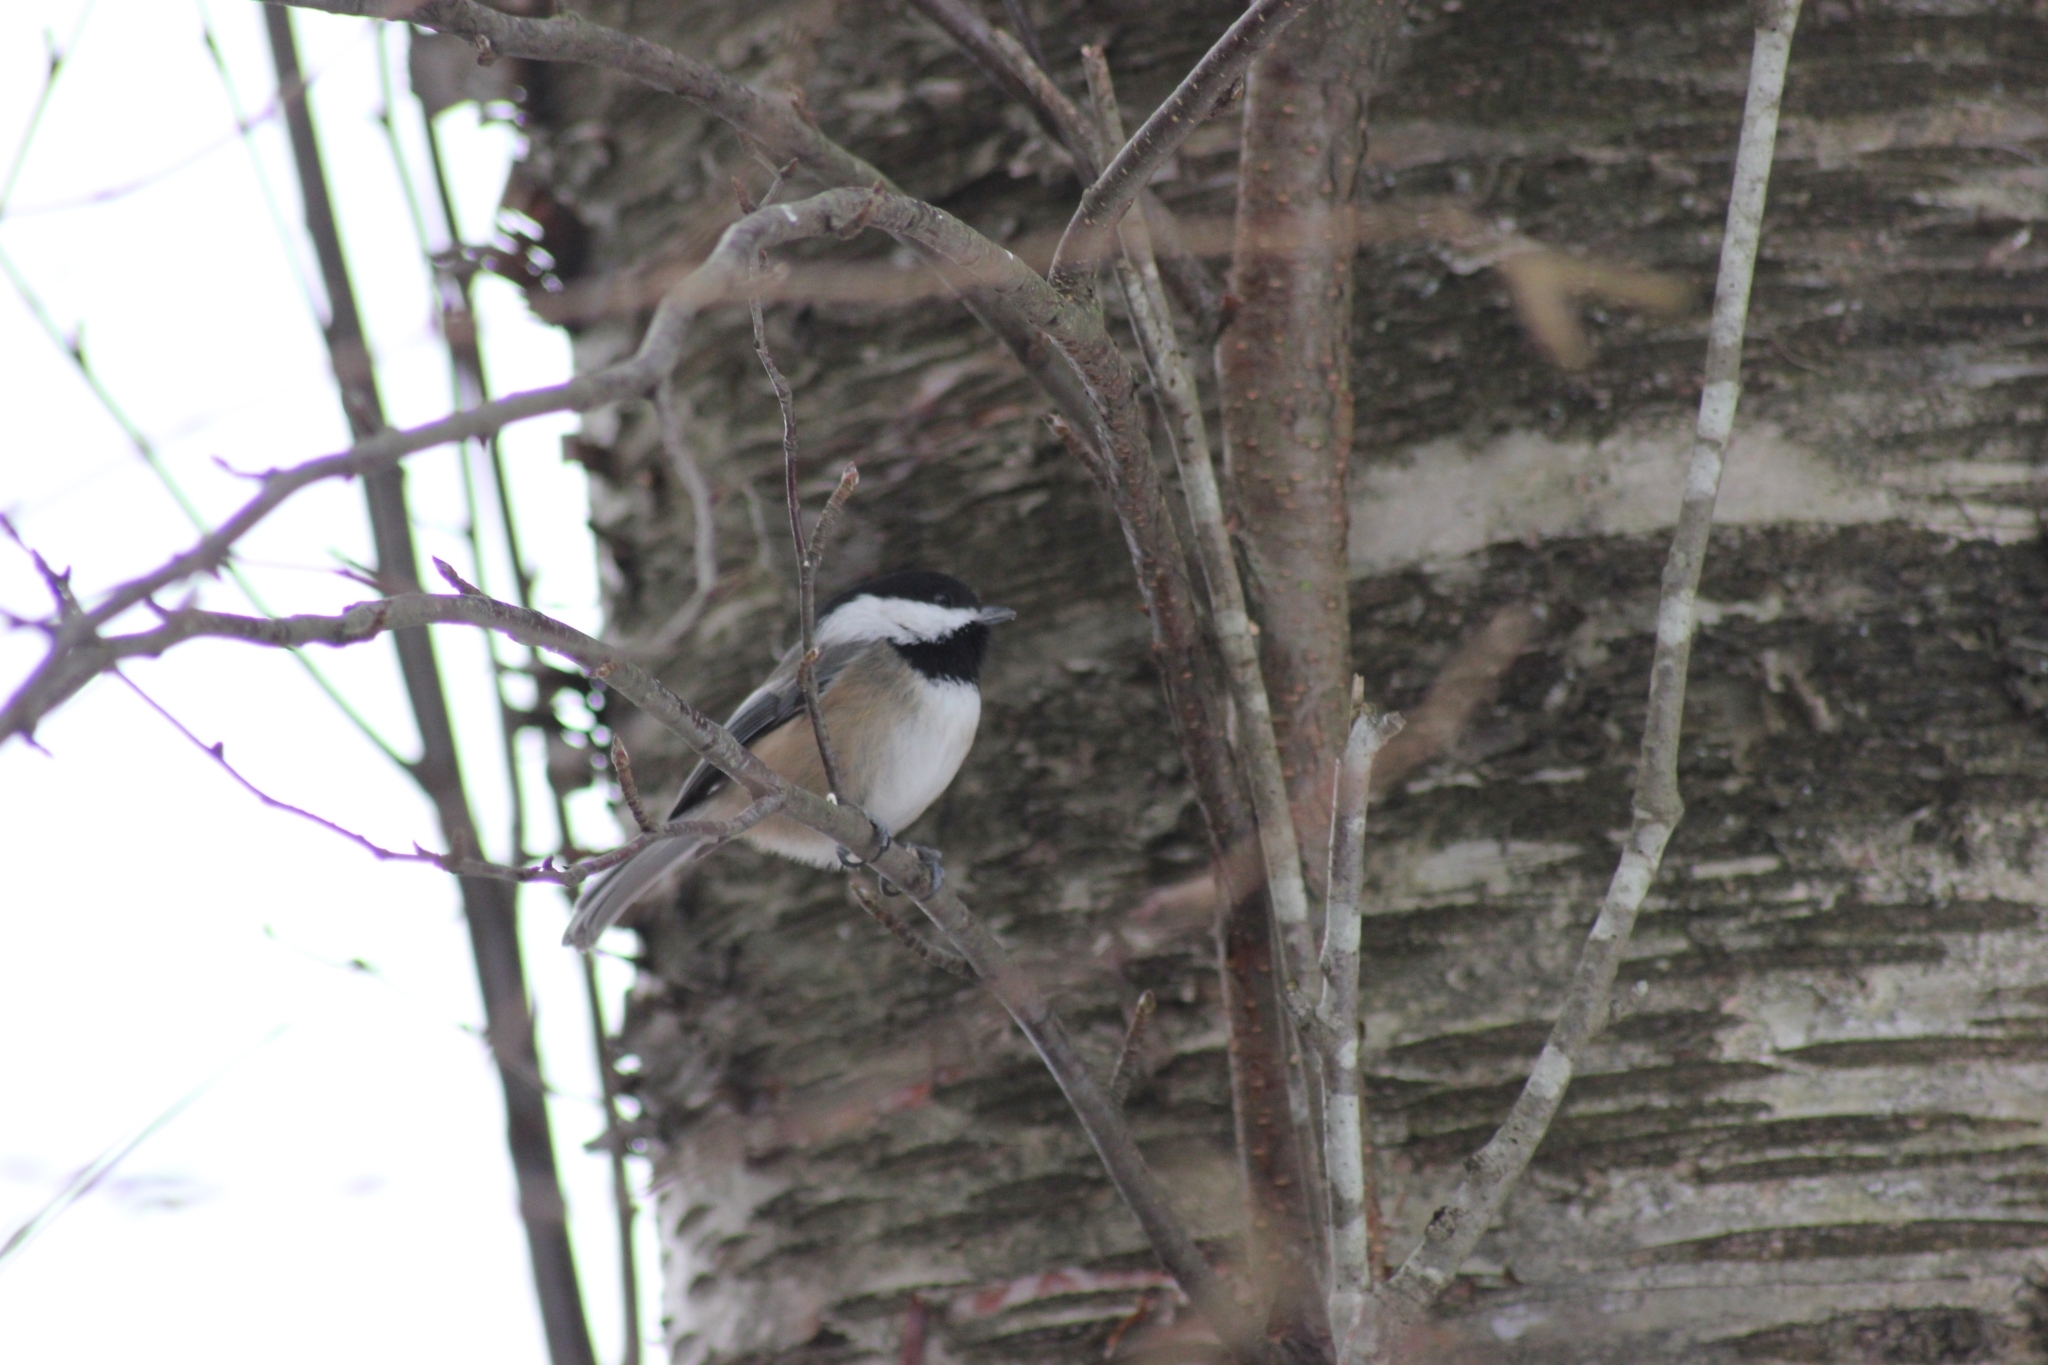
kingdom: Animalia
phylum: Chordata
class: Aves
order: Passeriformes
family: Paridae
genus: Poecile
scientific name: Poecile atricapillus
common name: Black-capped chickadee
